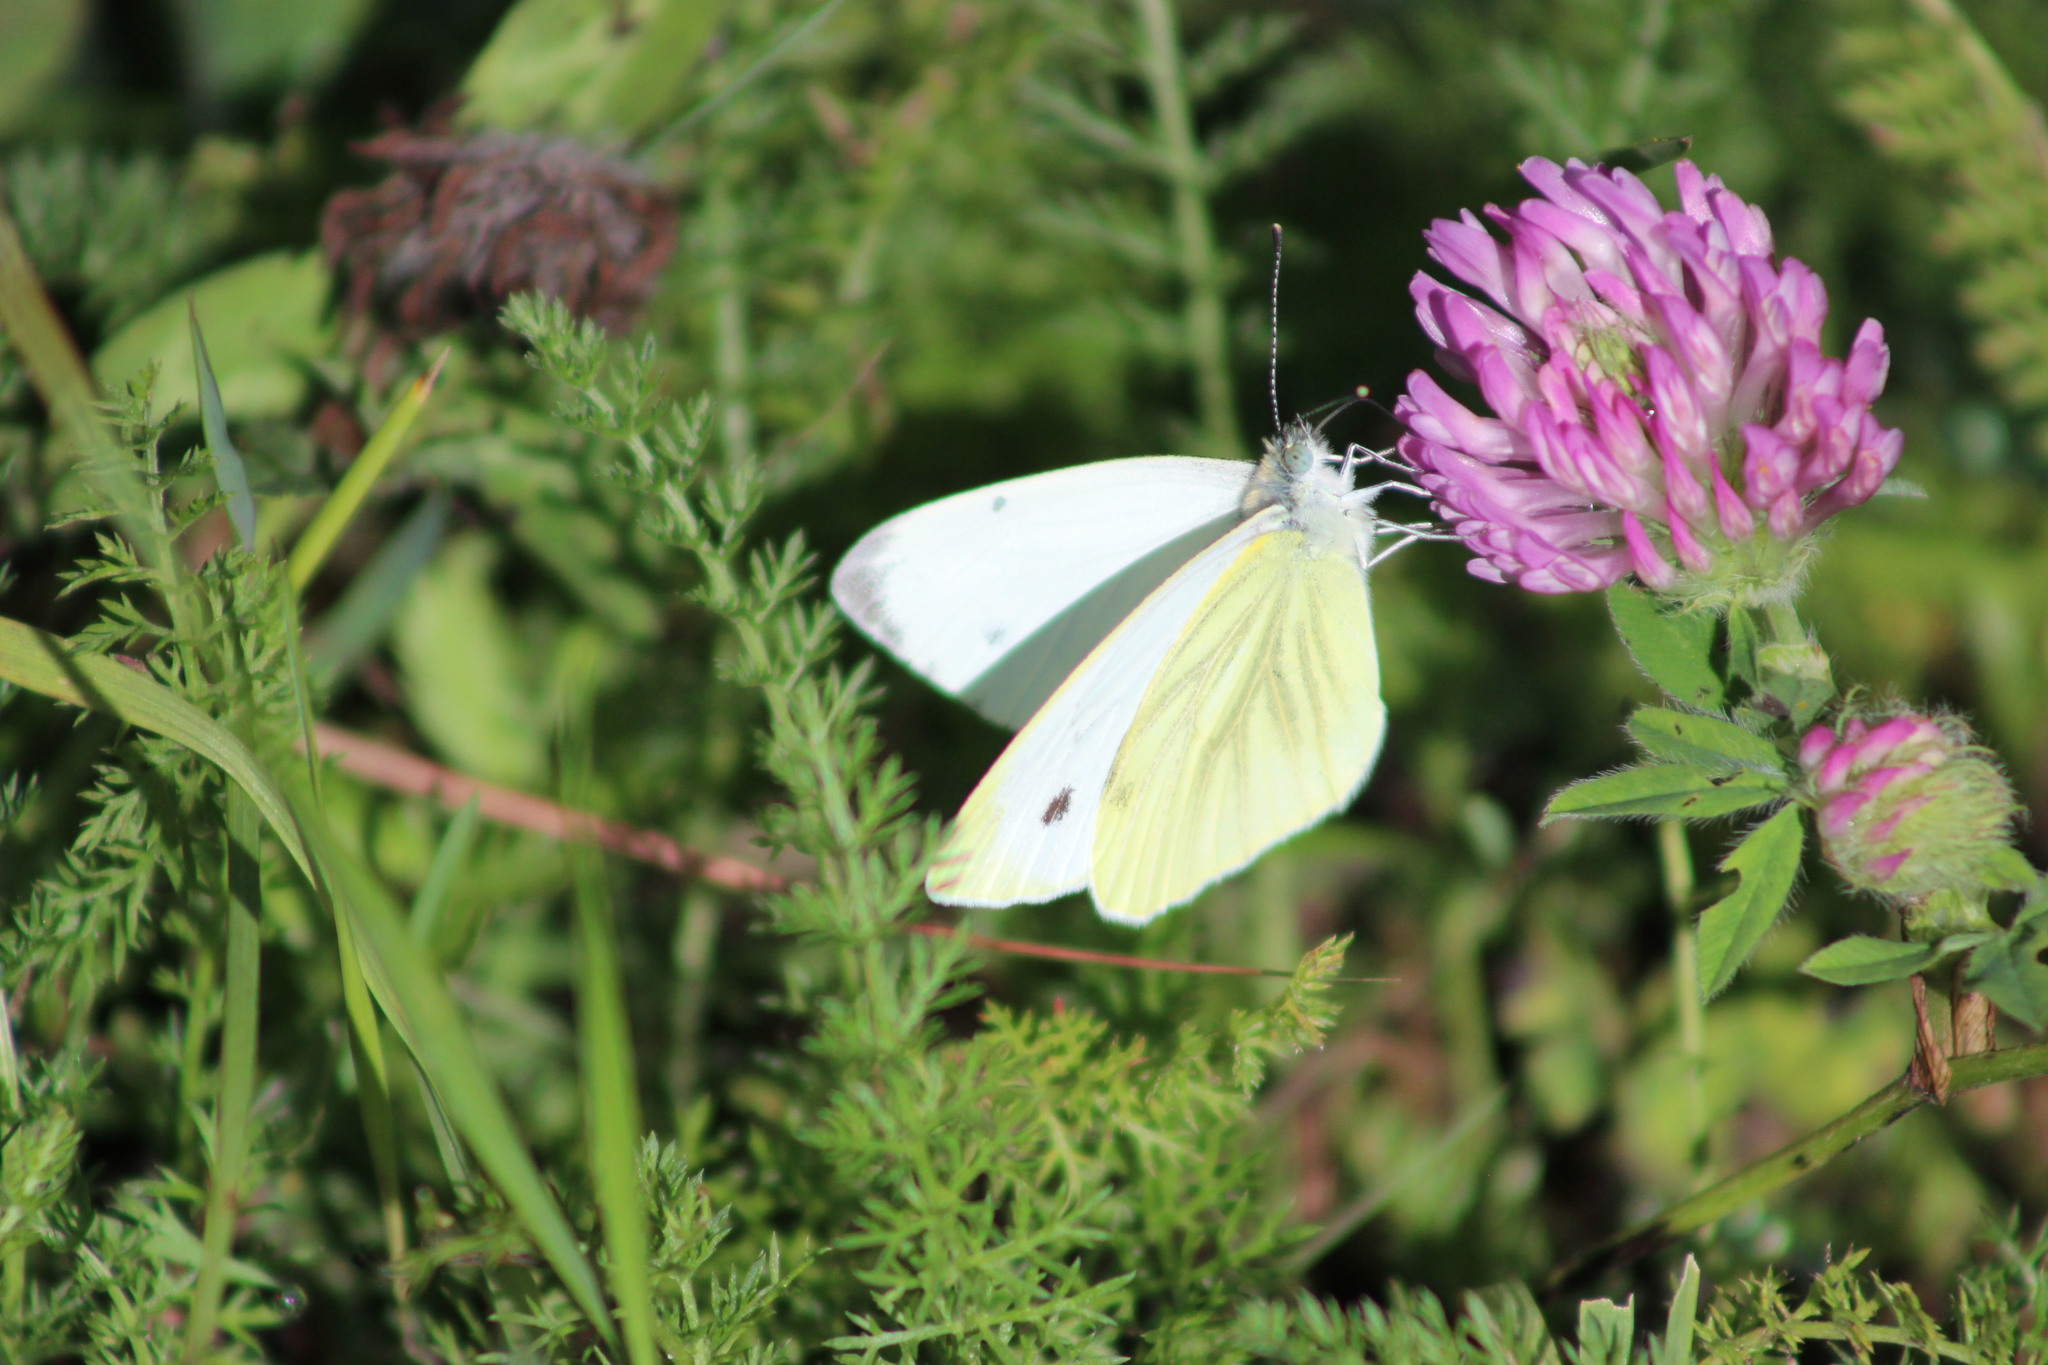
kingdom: Animalia
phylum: Arthropoda
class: Insecta
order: Lepidoptera
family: Pieridae
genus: Pieris
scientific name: Pieris napi
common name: Green-veined white
